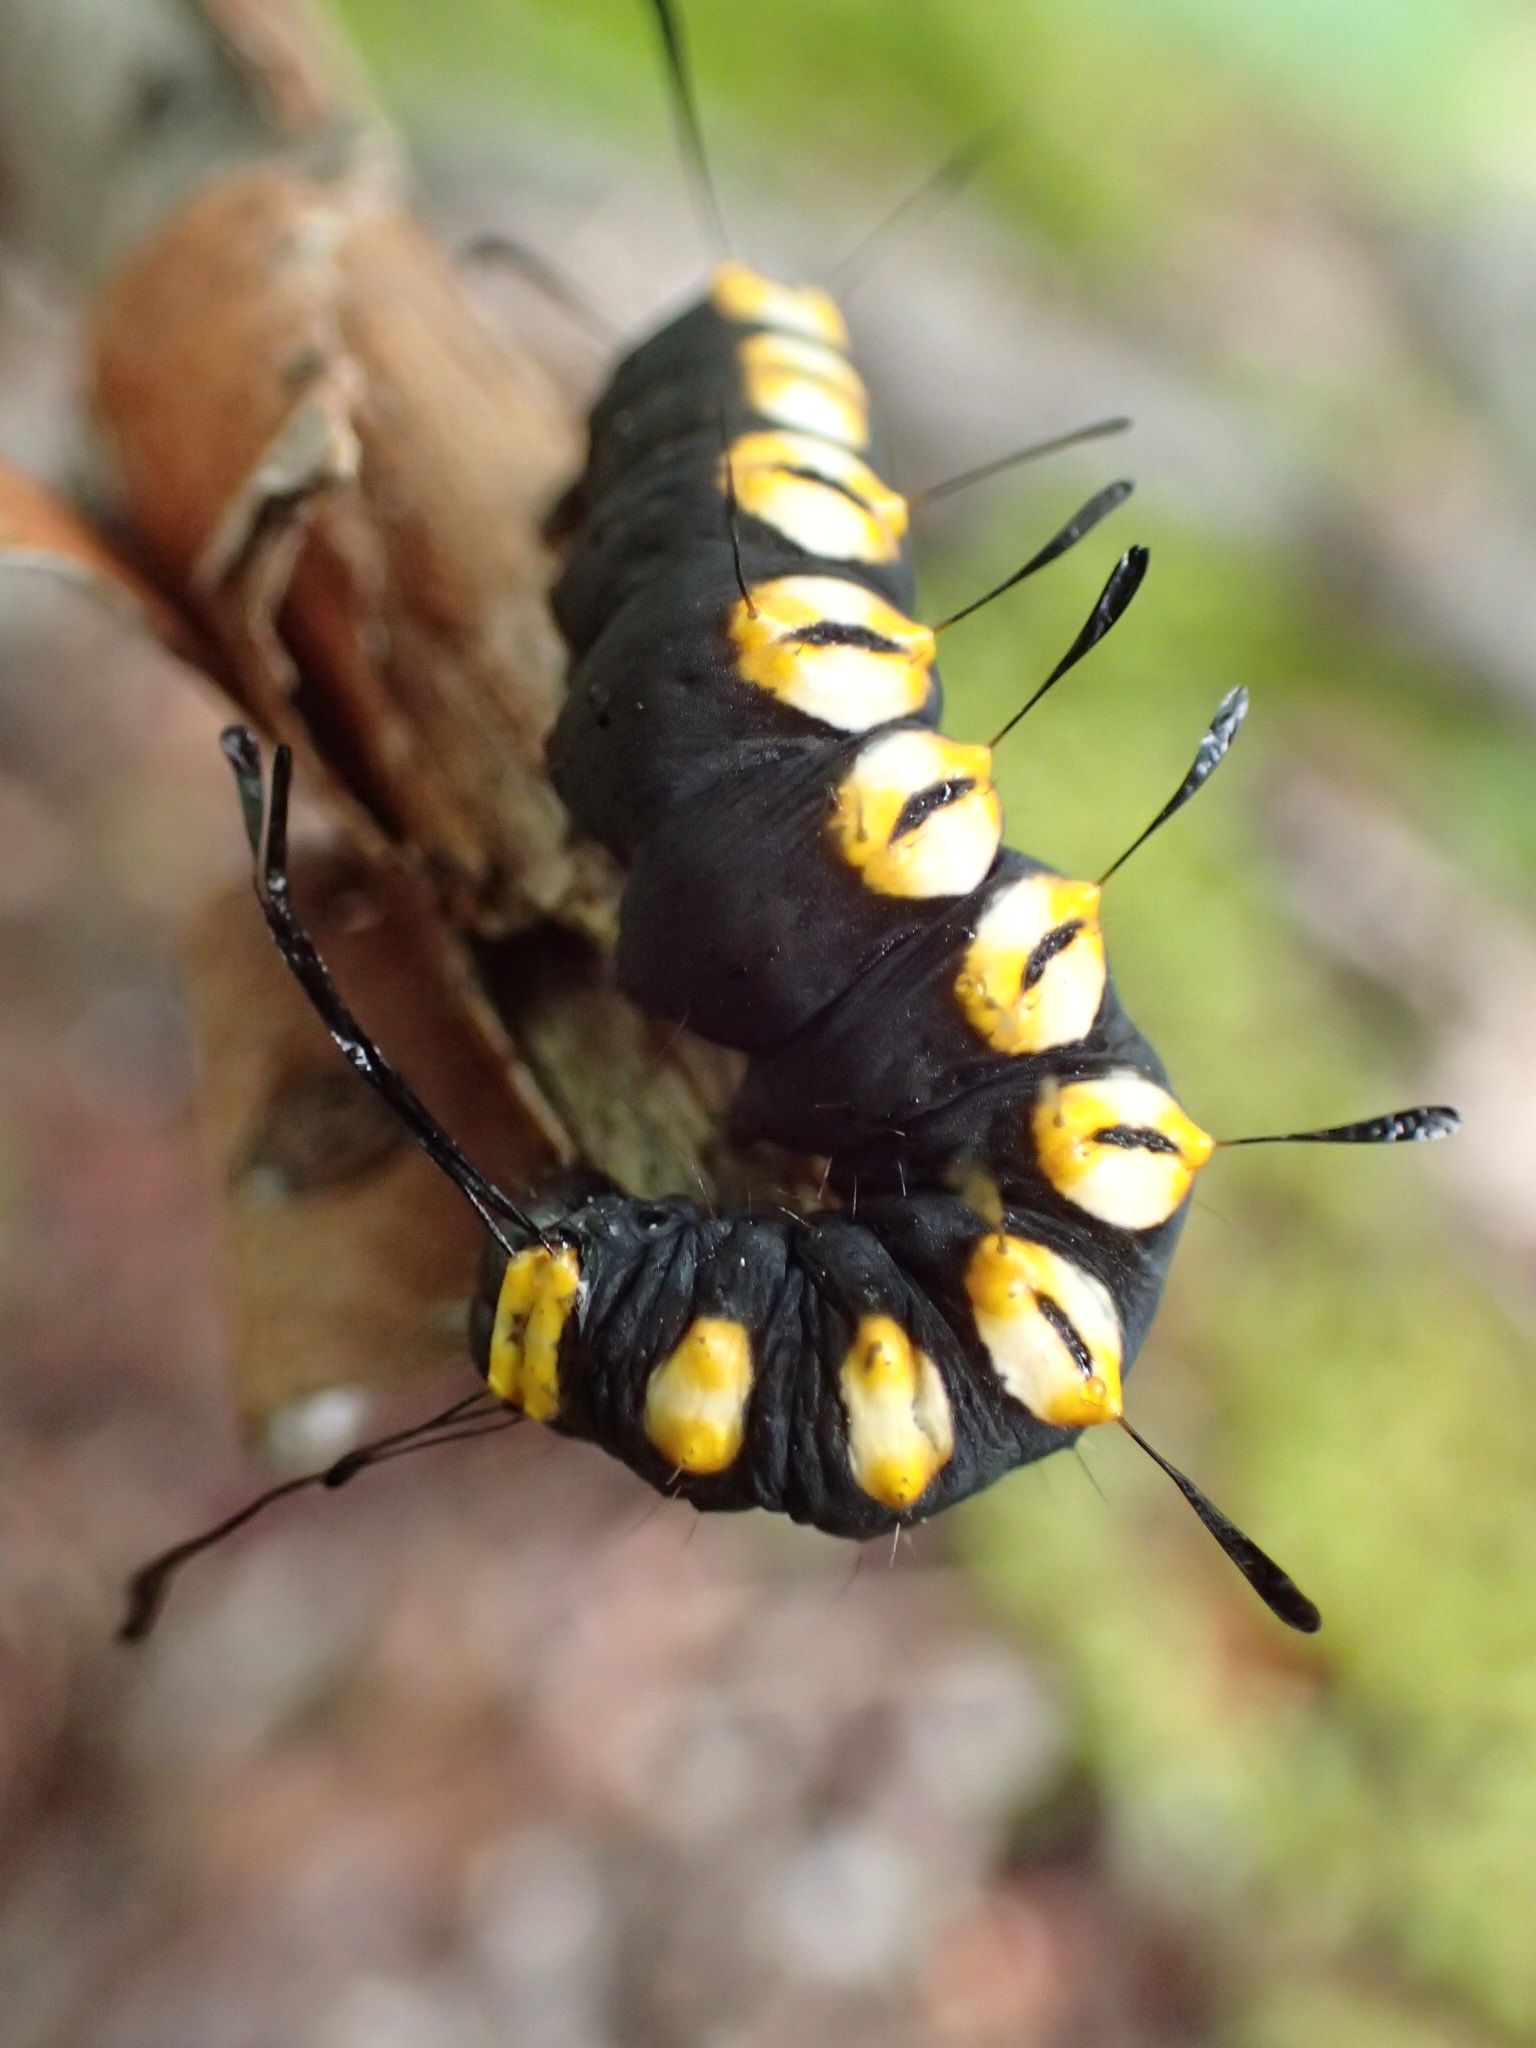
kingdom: Animalia
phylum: Arthropoda
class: Insecta
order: Lepidoptera
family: Noctuidae
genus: Acronicta
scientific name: Acronicta funeralis
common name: Funerary dagger
